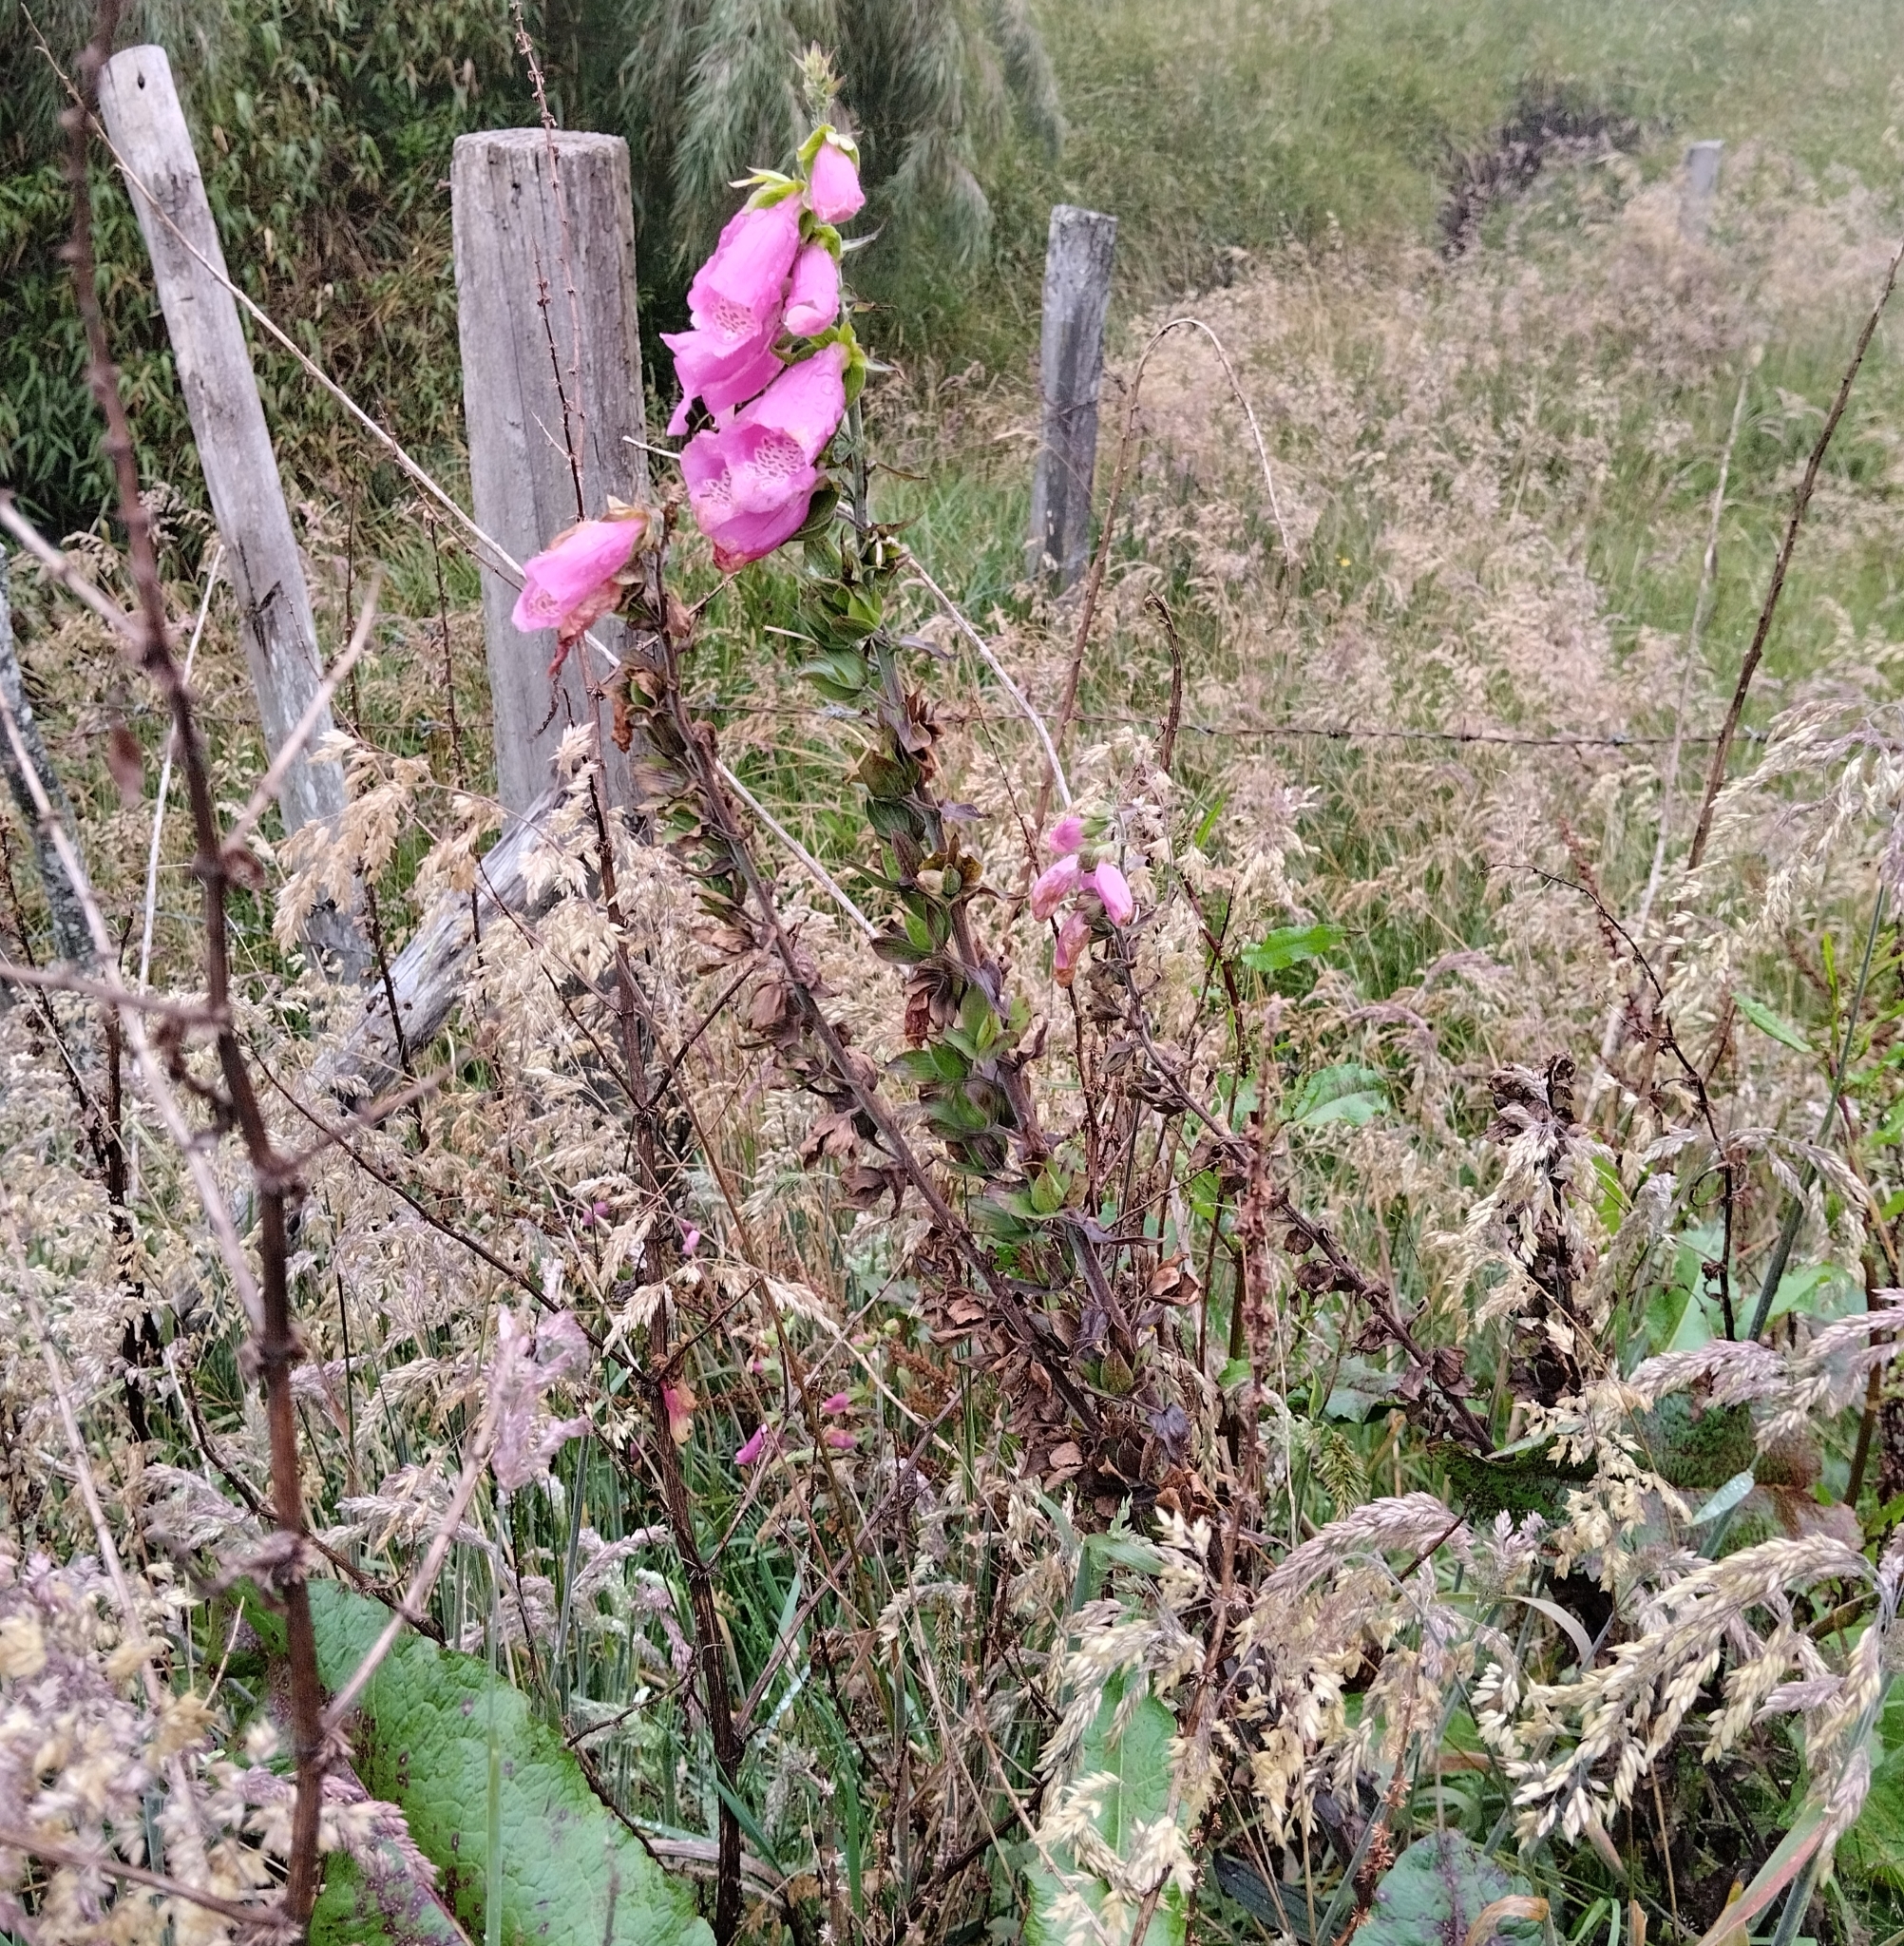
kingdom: Plantae
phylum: Tracheophyta
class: Magnoliopsida
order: Lamiales
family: Plantaginaceae
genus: Digitalis
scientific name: Digitalis purpurea
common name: Foxglove
